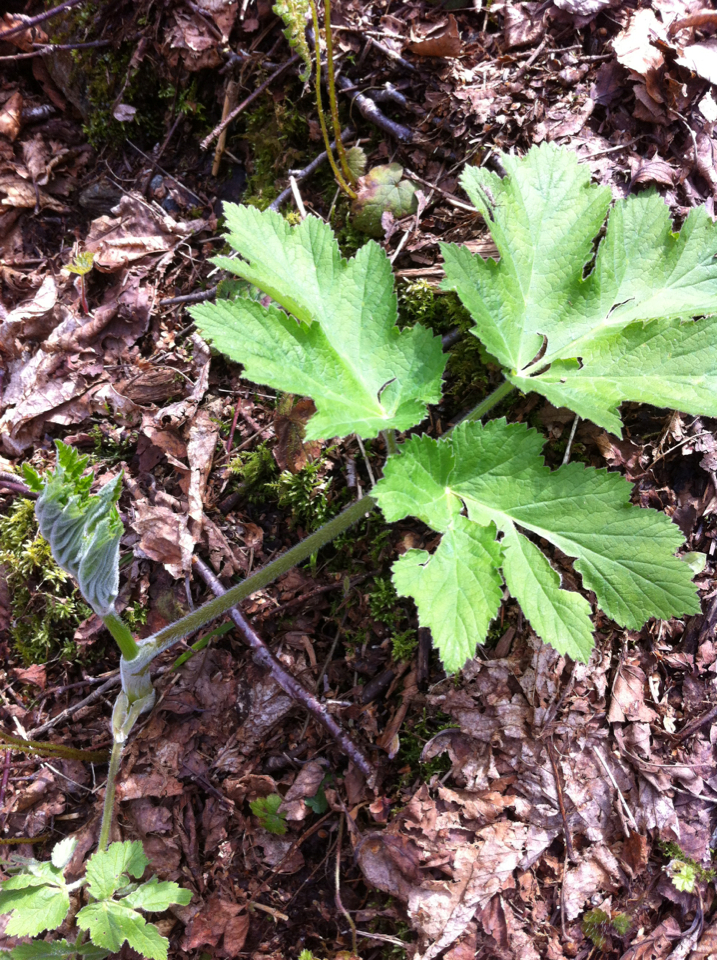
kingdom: Plantae
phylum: Tracheophyta
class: Magnoliopsida
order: Apiales
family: Apiaceae
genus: Heracleum
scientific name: Heracleum maximum
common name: American cow parsnip
